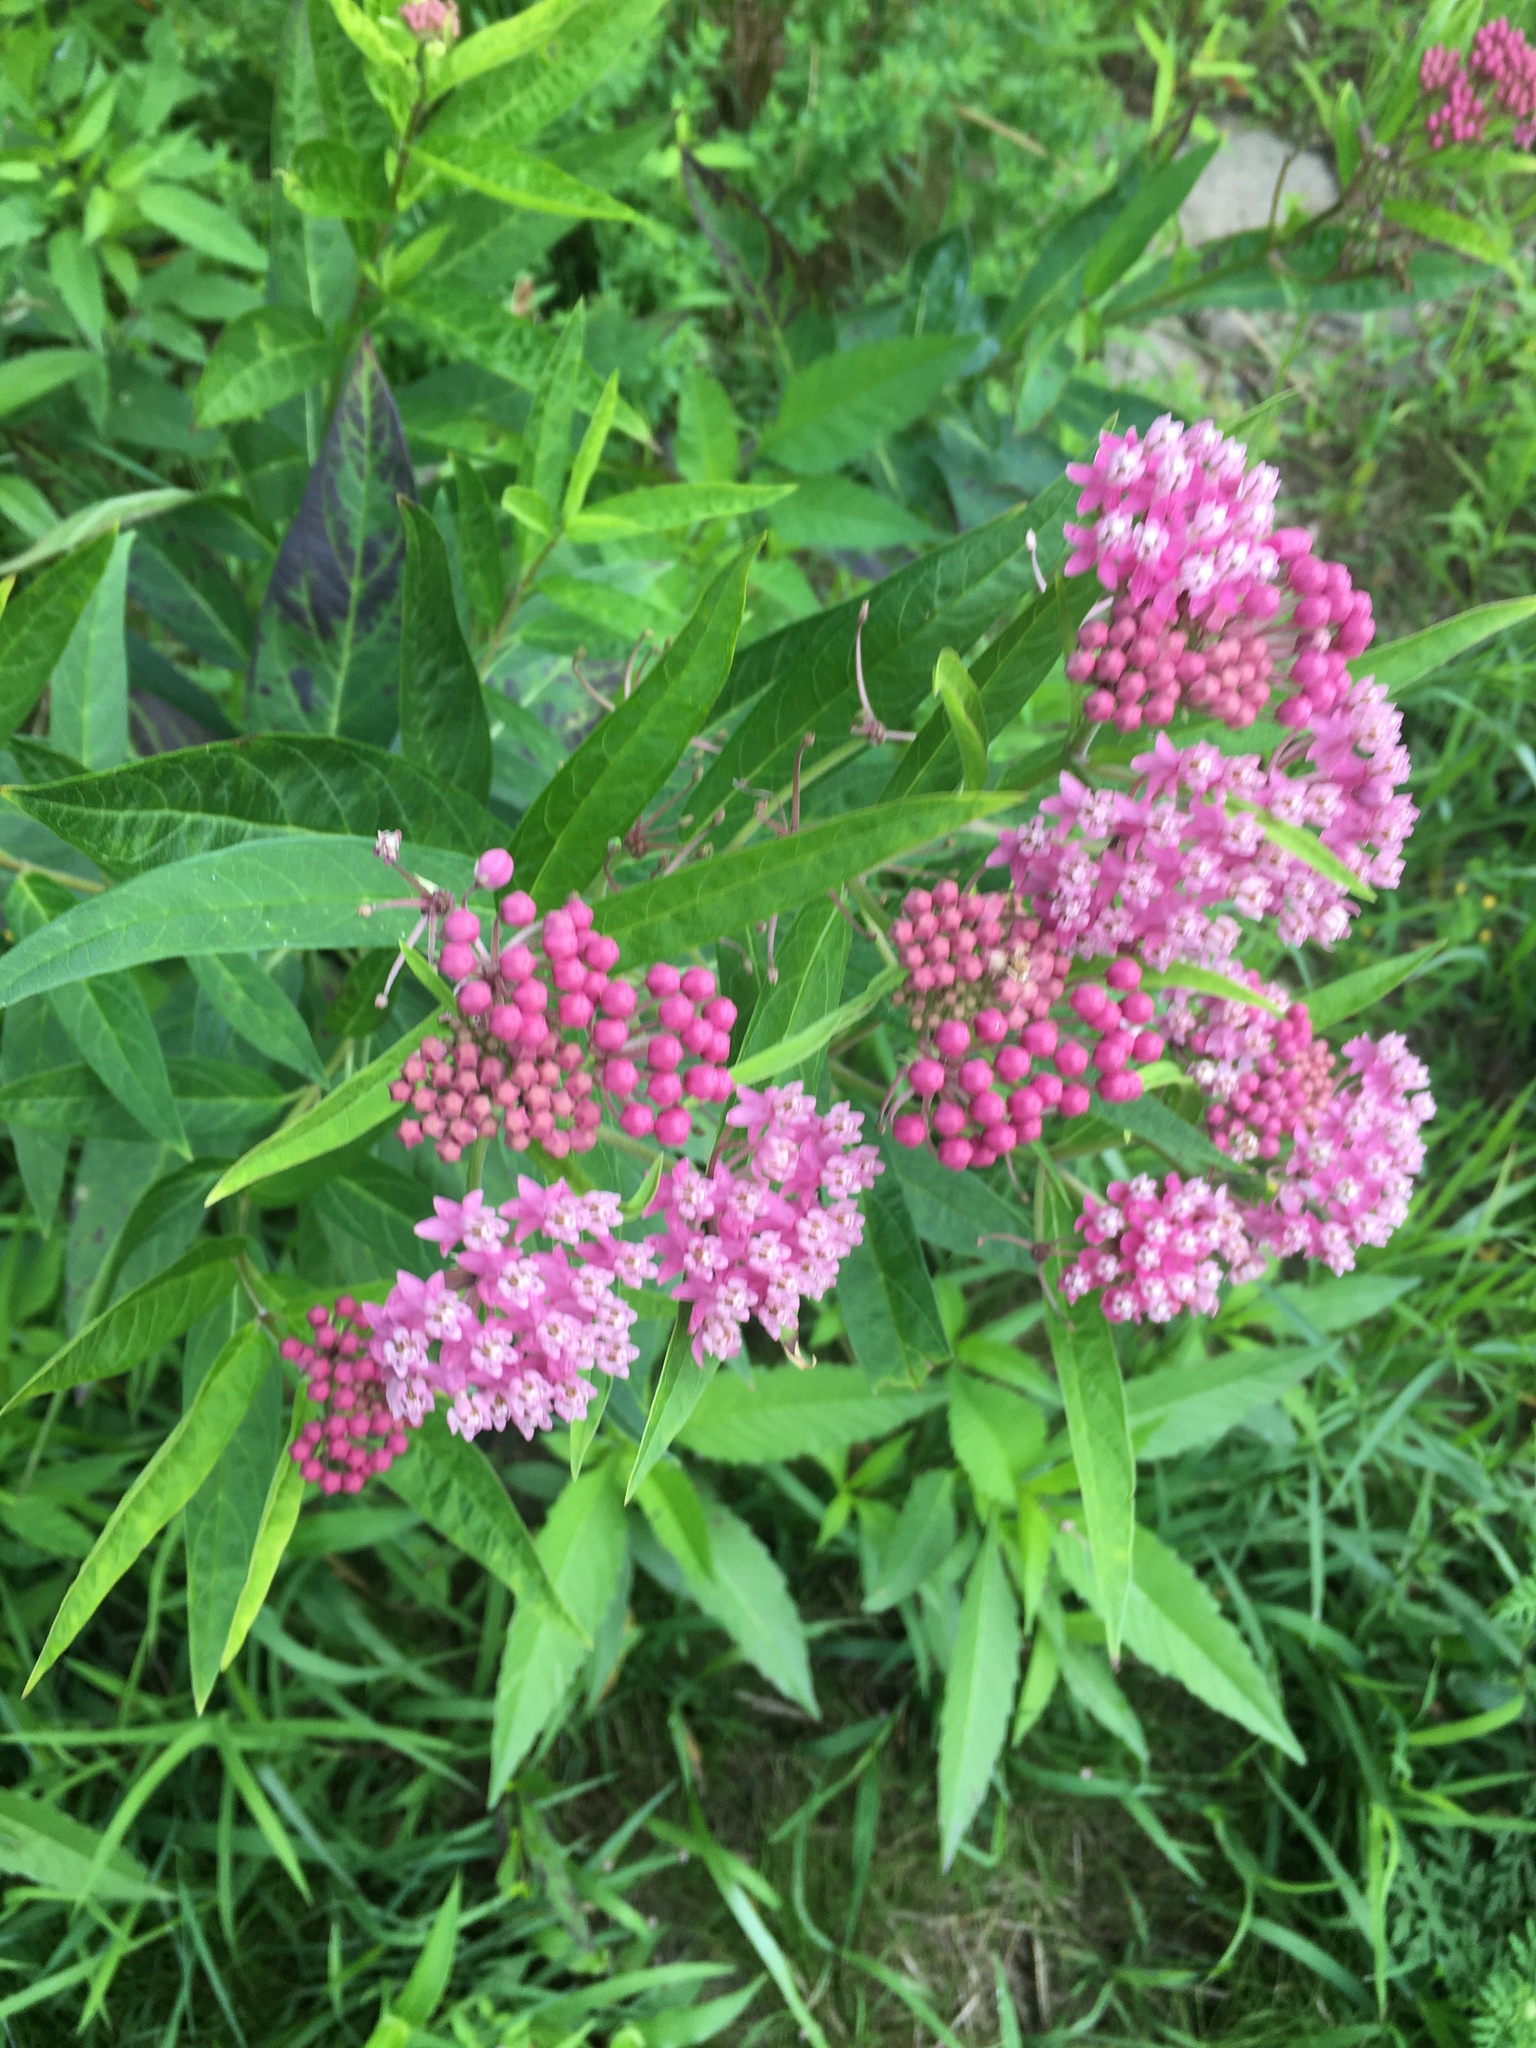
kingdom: Plantae
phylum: Tracheophyta
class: Magnoliopsida
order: Gentianales
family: Apocynaceae
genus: Asclepias
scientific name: Asclepias incarnata
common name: Swamp milkweed
